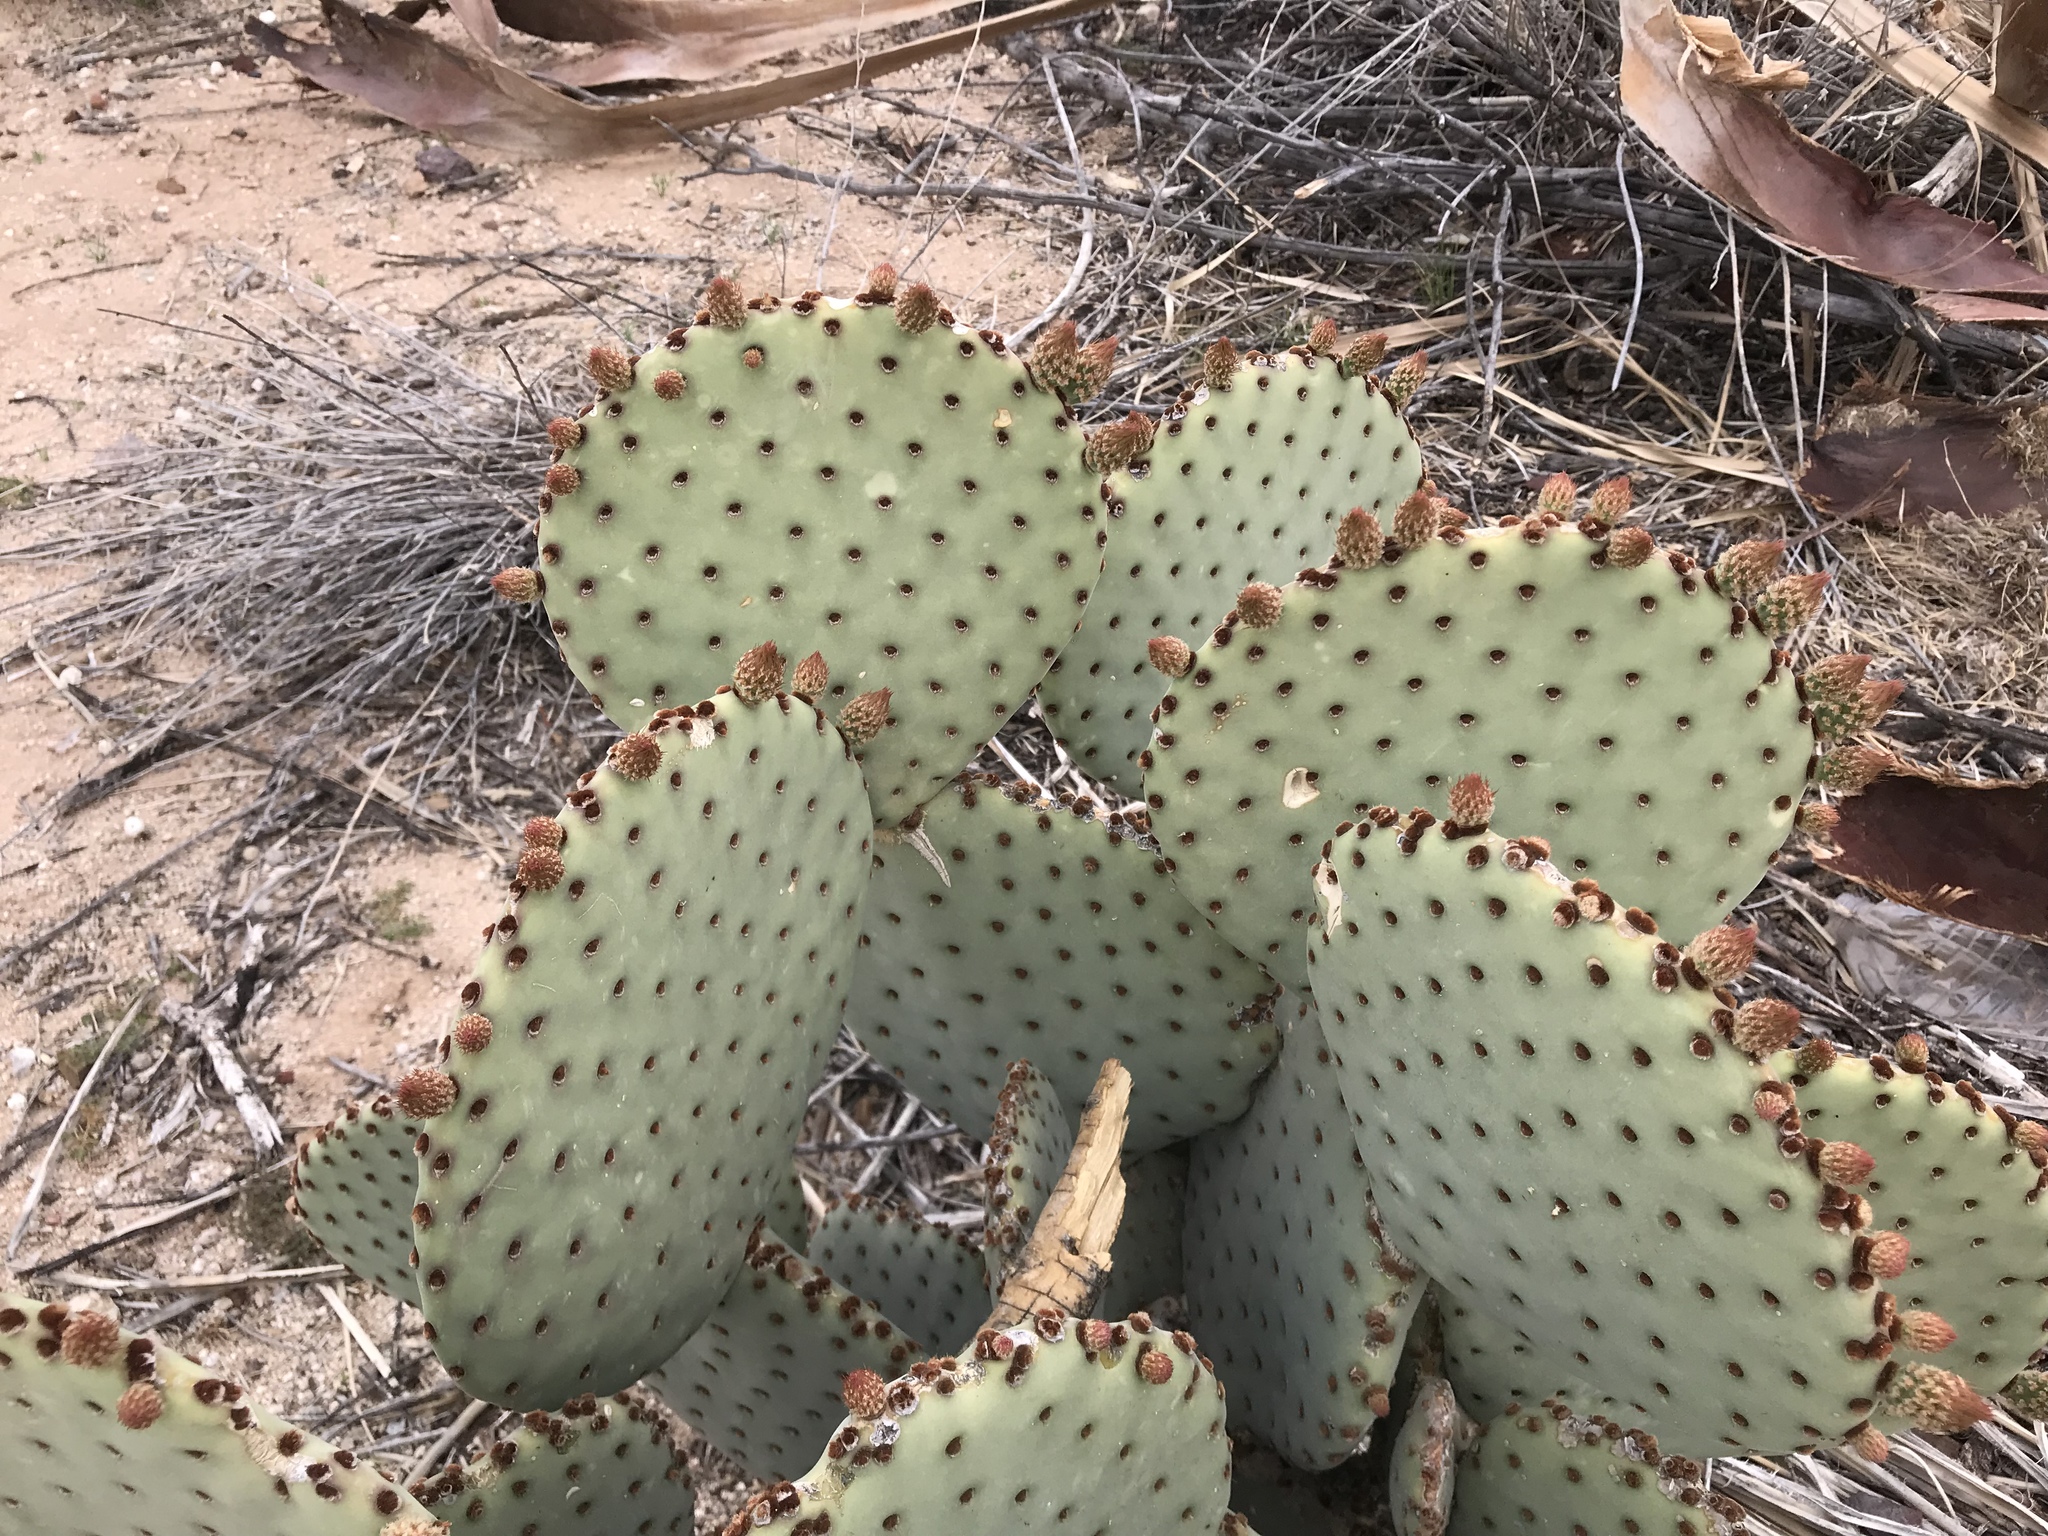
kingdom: Plantae
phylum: Tracheophyta
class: Magnoliopsida
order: Caryophyllales
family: Cactaceae
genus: Opuntia
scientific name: Opuntia rufida
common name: Blind pricklypear
